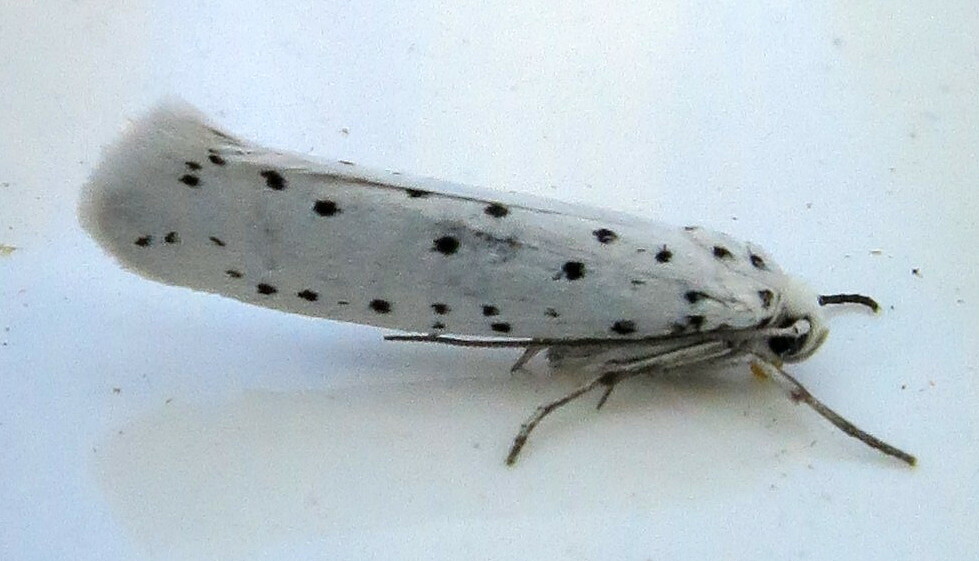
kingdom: Animalia
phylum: Arthropoda
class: Insecta
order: Lepidoptera
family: Yponomeutidae
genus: Yponomeuta
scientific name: Yponomeuta
